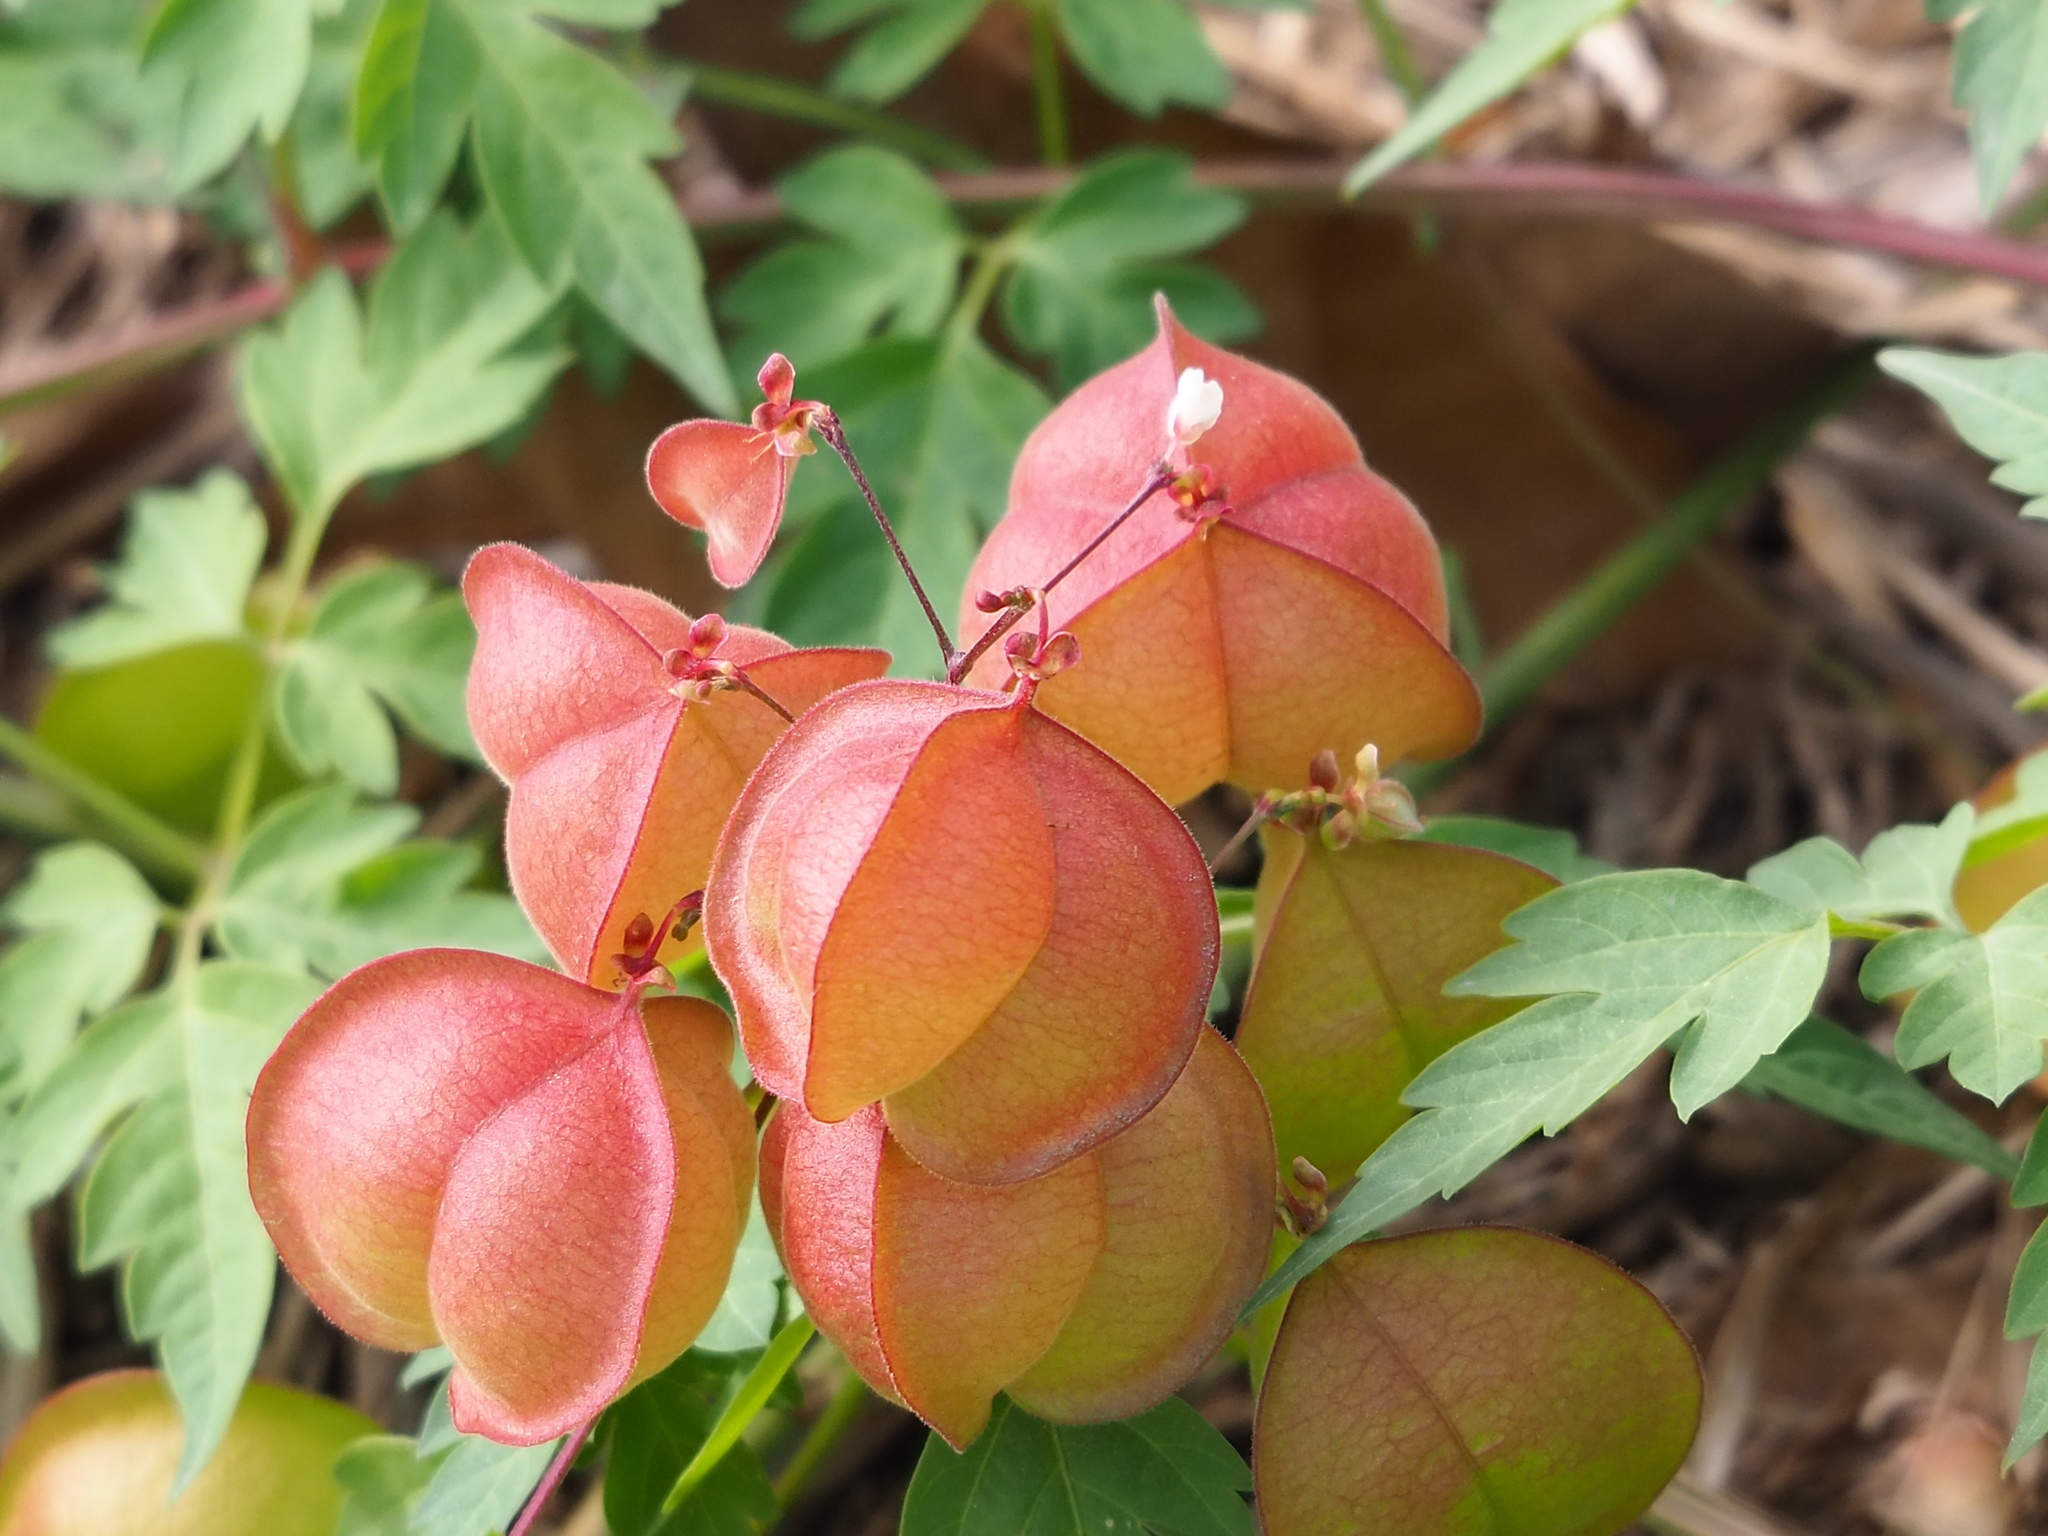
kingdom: Plantae
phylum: Tracheophyta
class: Magnoliopsida
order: Sapindales
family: Sapindaceae
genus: Cardiospermum
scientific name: Cardiospermum halicacabum
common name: Balloon vine
